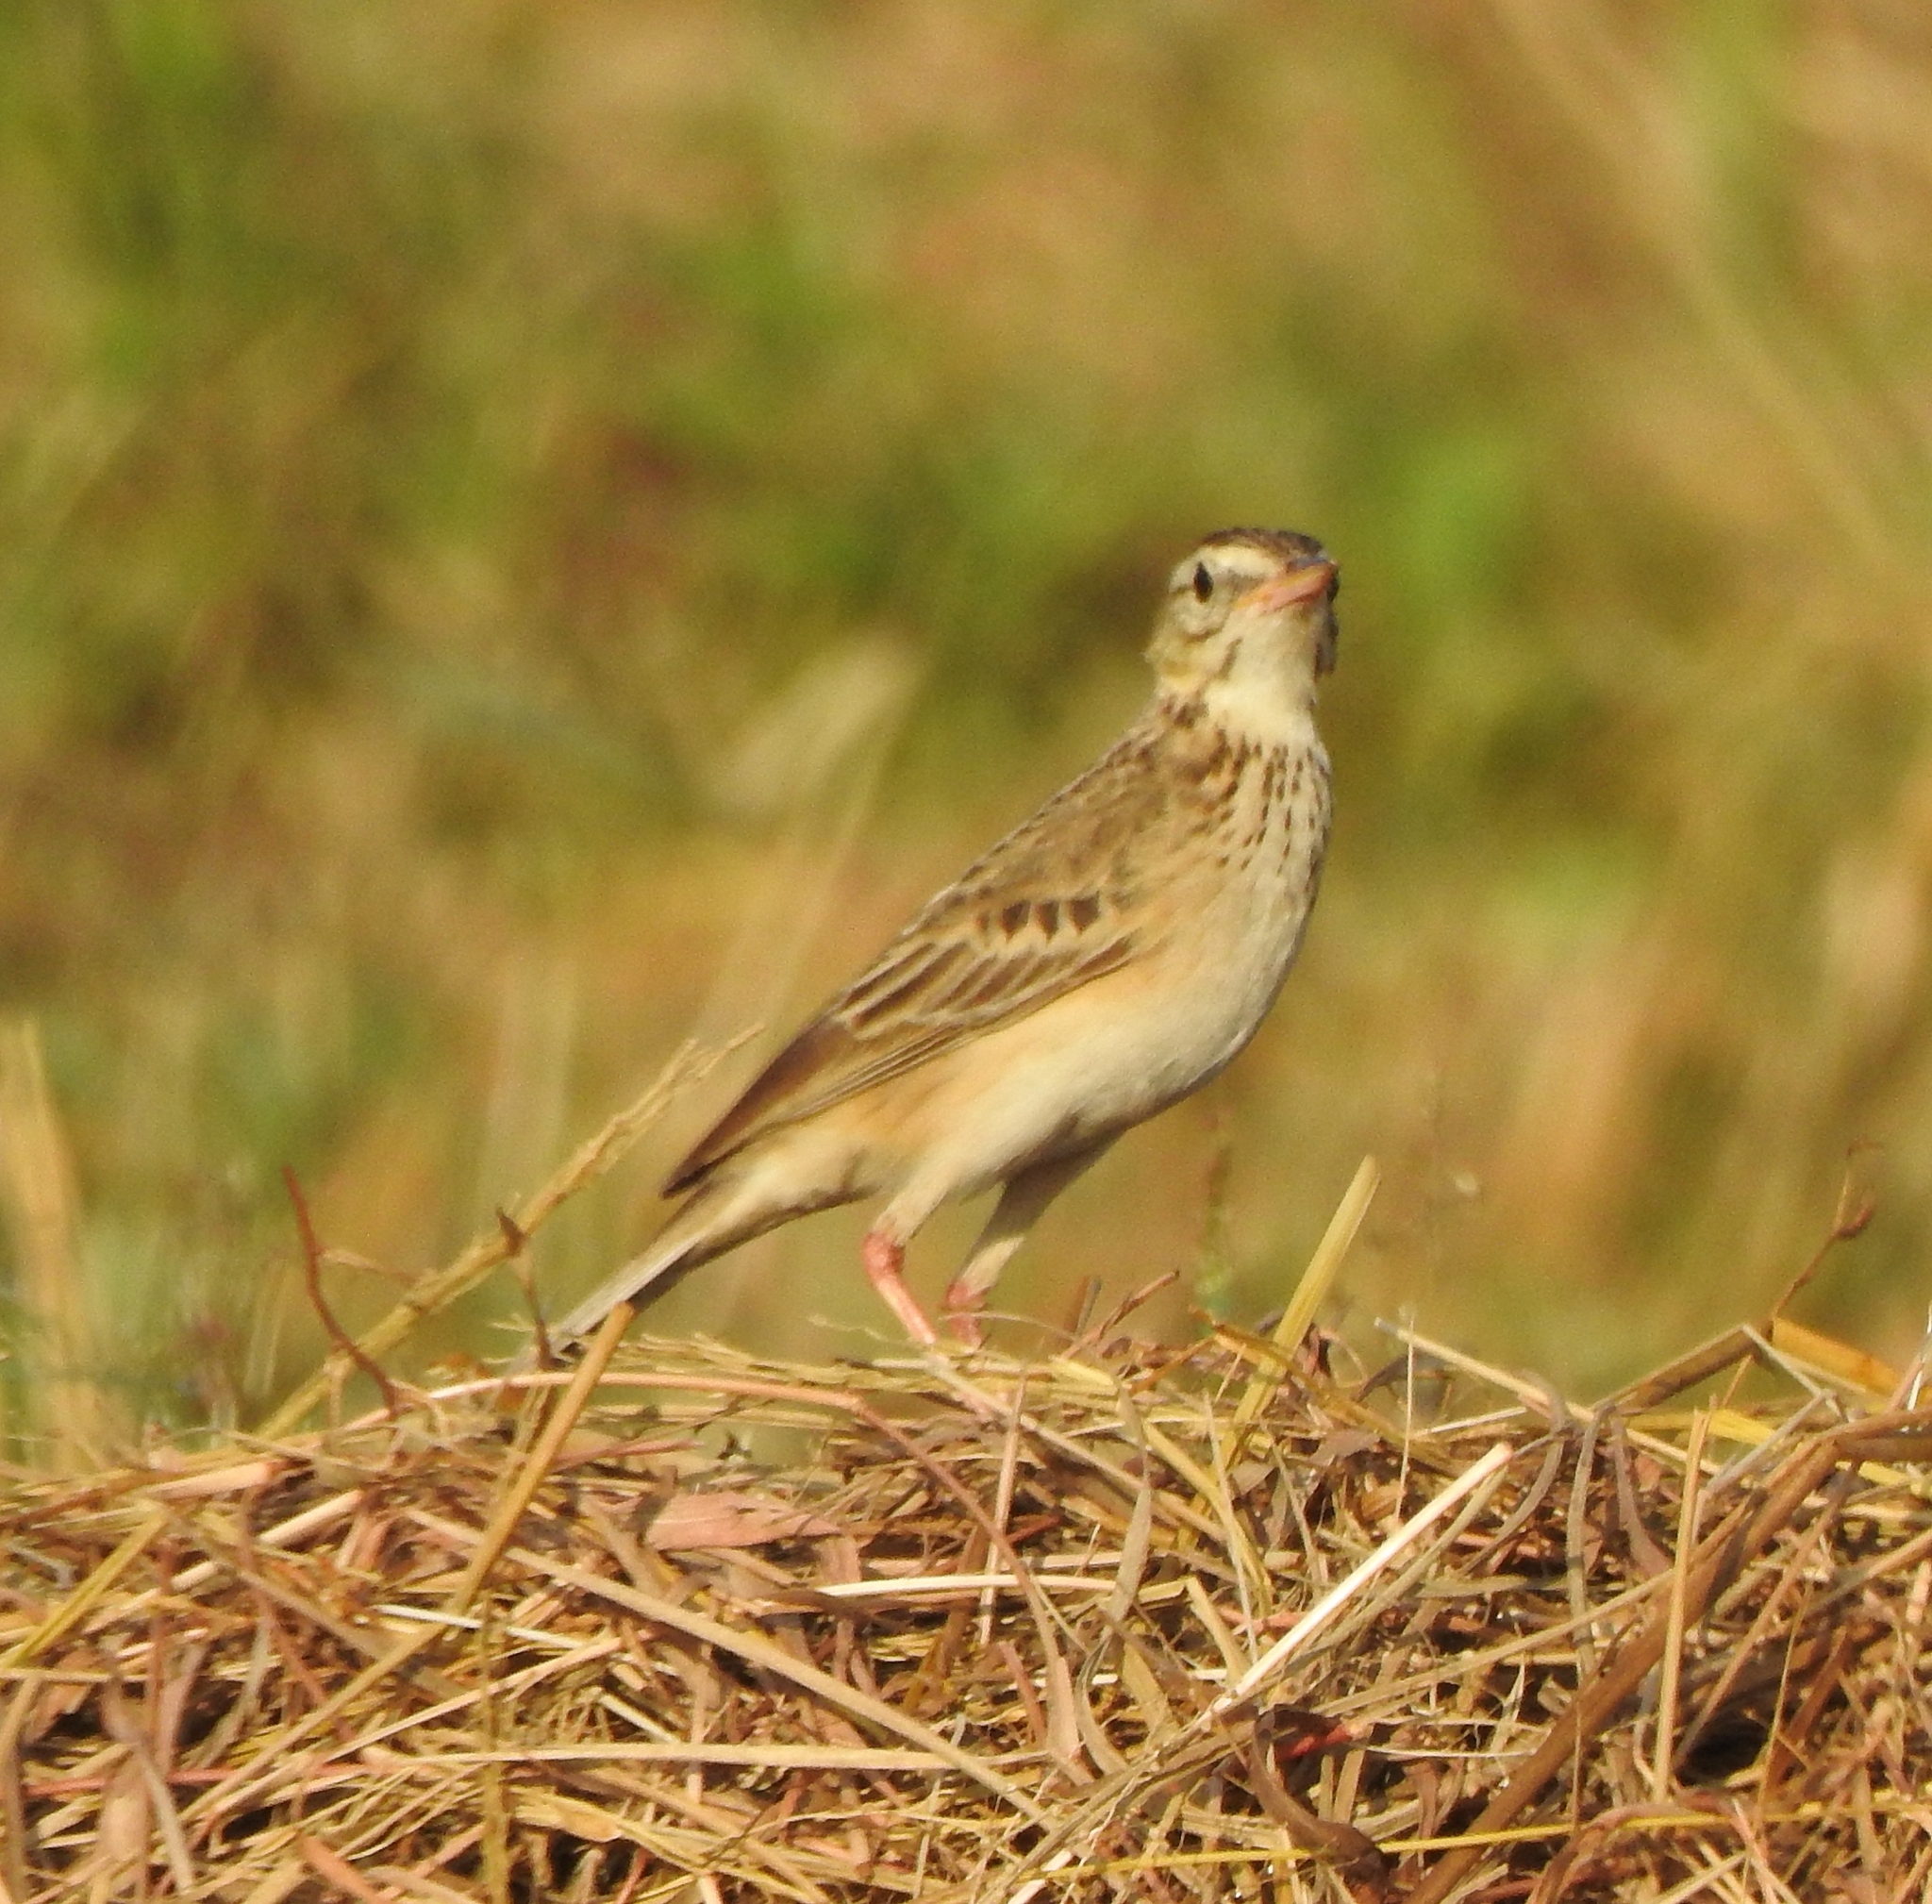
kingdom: Animalia
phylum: Chordata
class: Aves
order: Passeriformes
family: Motacillidae
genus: Anthus
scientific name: Anthus richardi
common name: Richard's pipit
